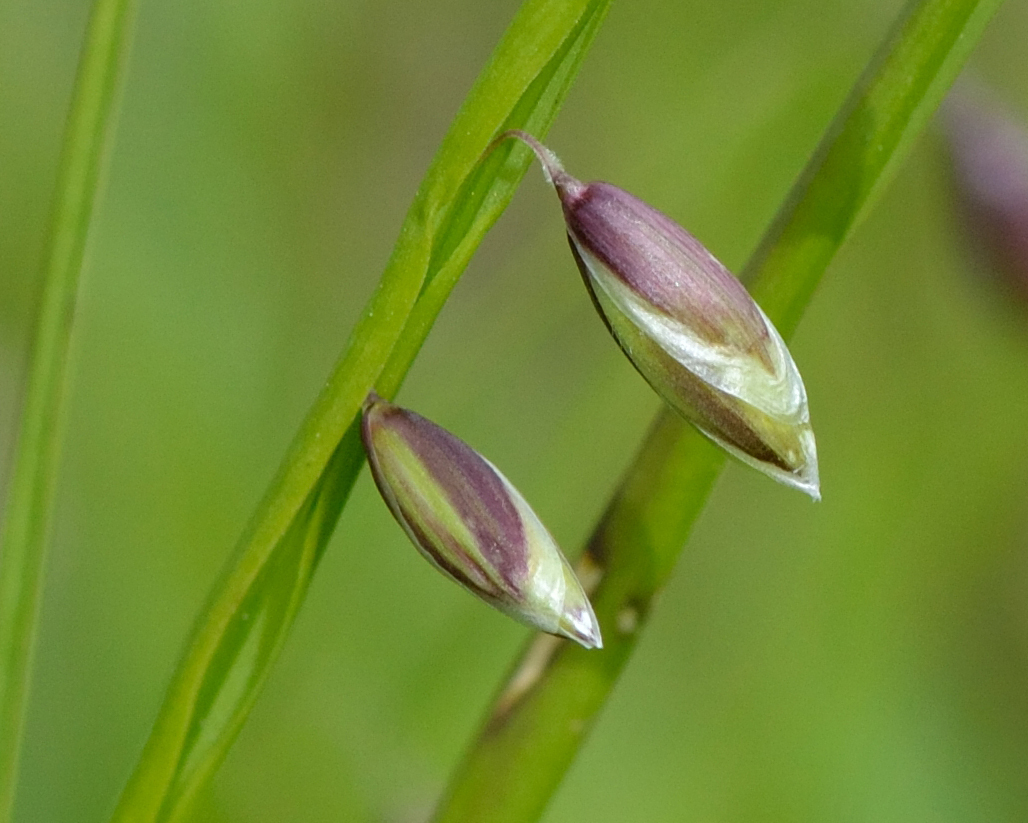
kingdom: Plantae
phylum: Tracheophyta
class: Liliopsida
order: Poales
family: Poaceae
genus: Melica
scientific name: Melica nutans
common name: Mountain melick
